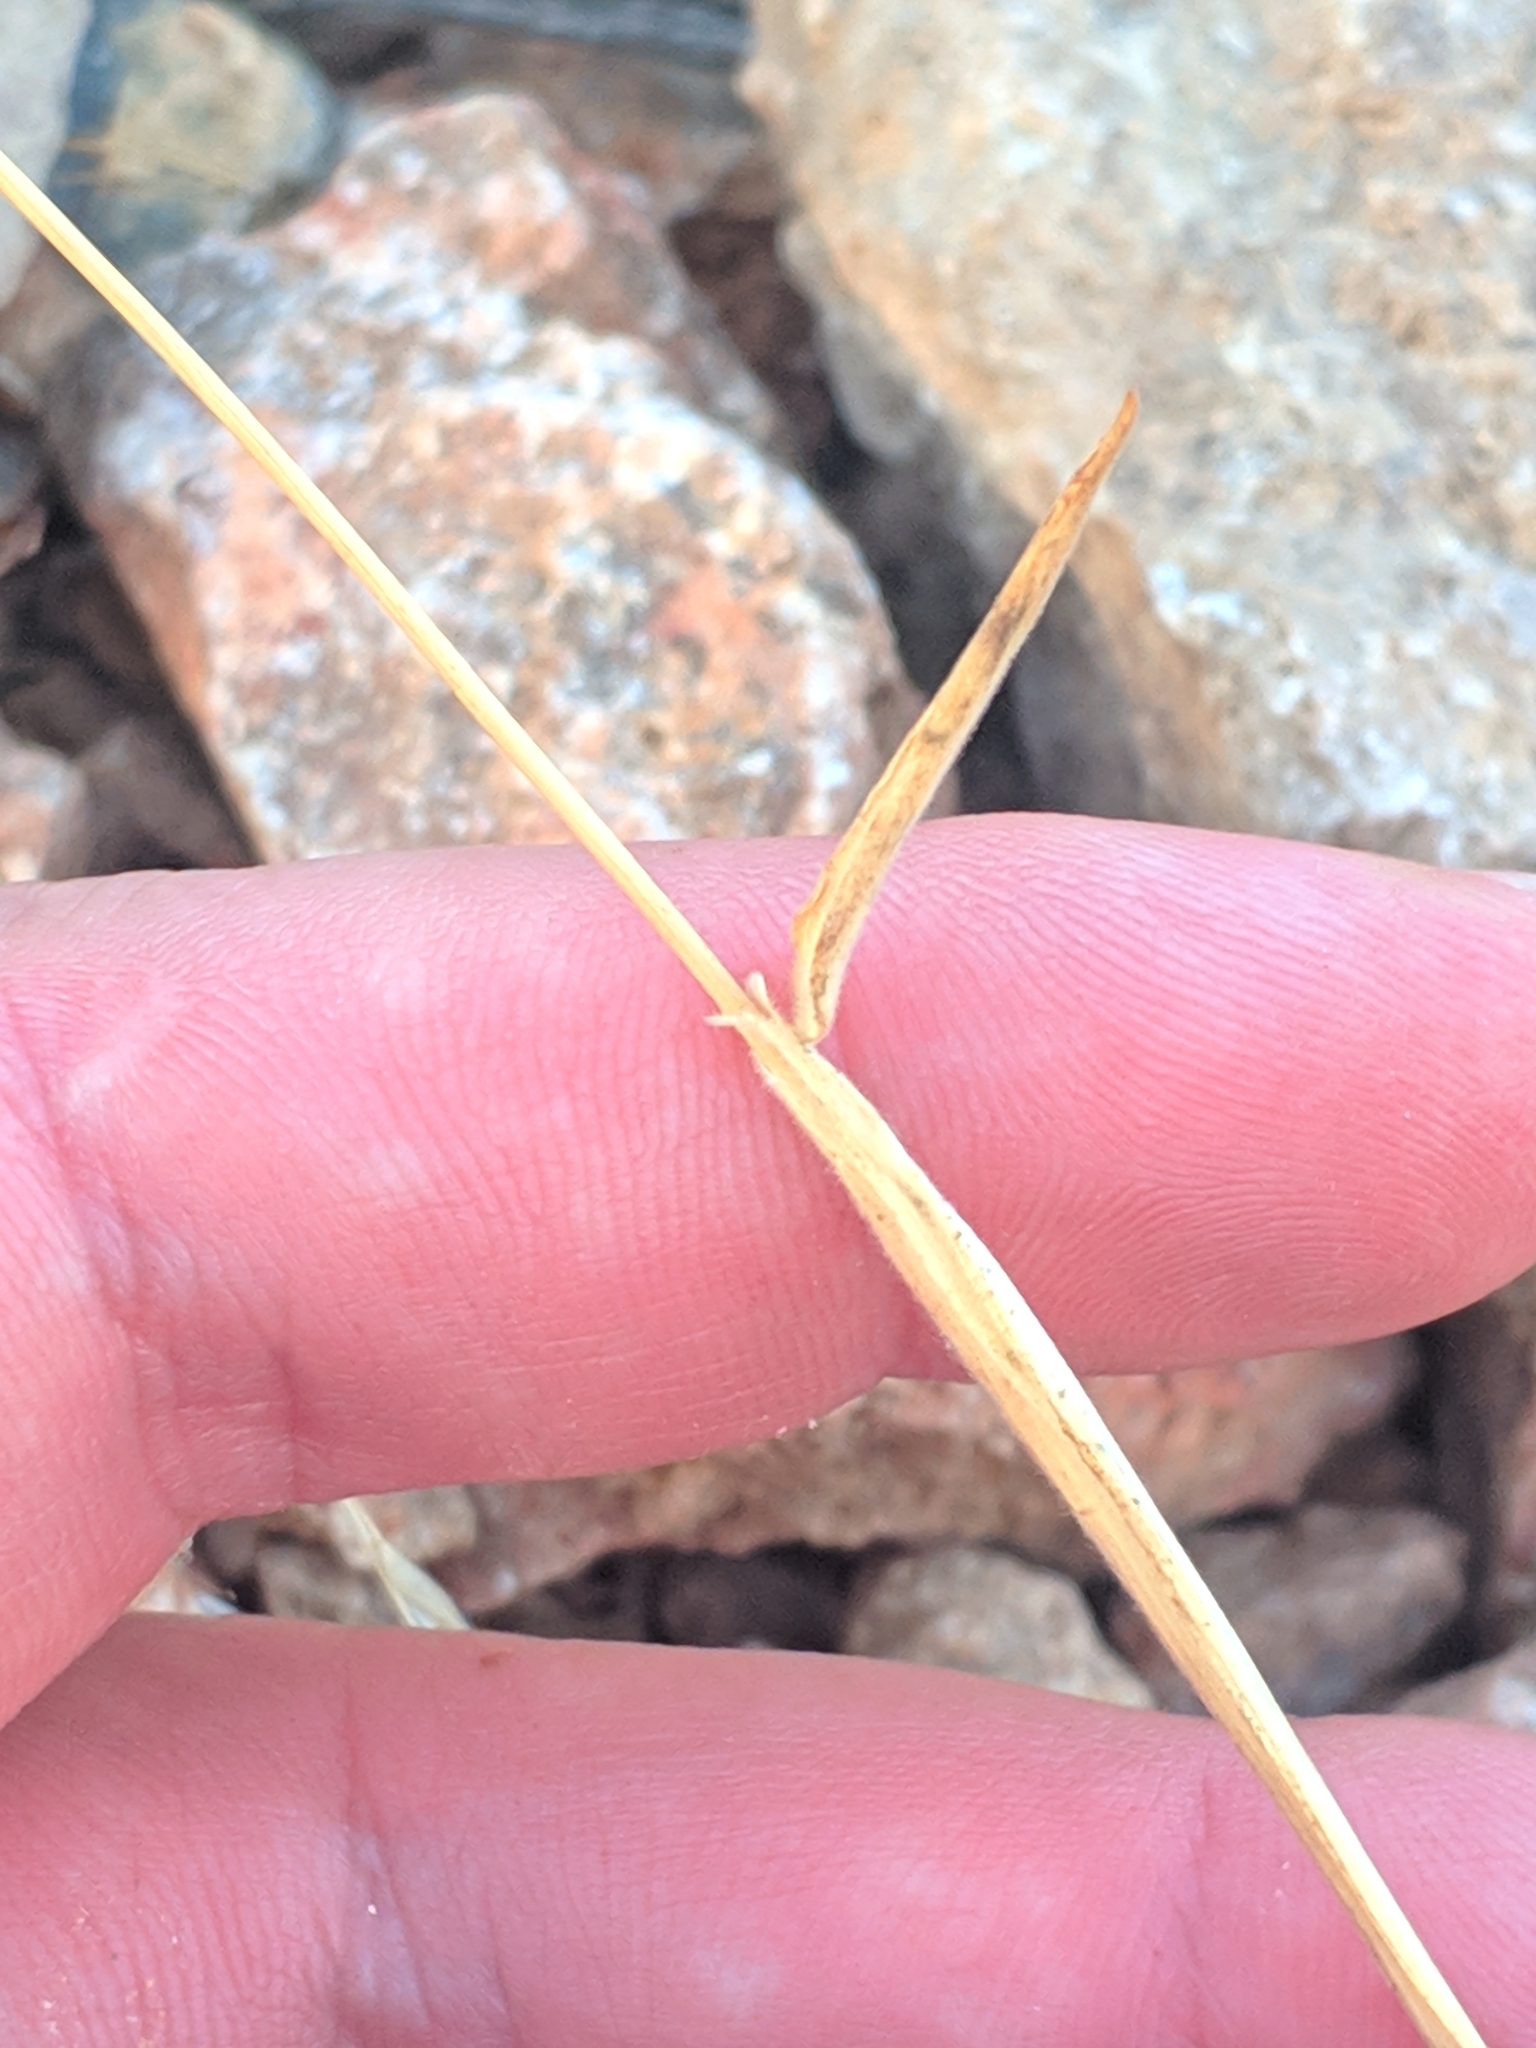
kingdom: Plantae
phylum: Tracheophyta
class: Liliopsida
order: Poales
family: Poaceae
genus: Lagurus
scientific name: Lagurus ovatus
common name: Hare's-tail
